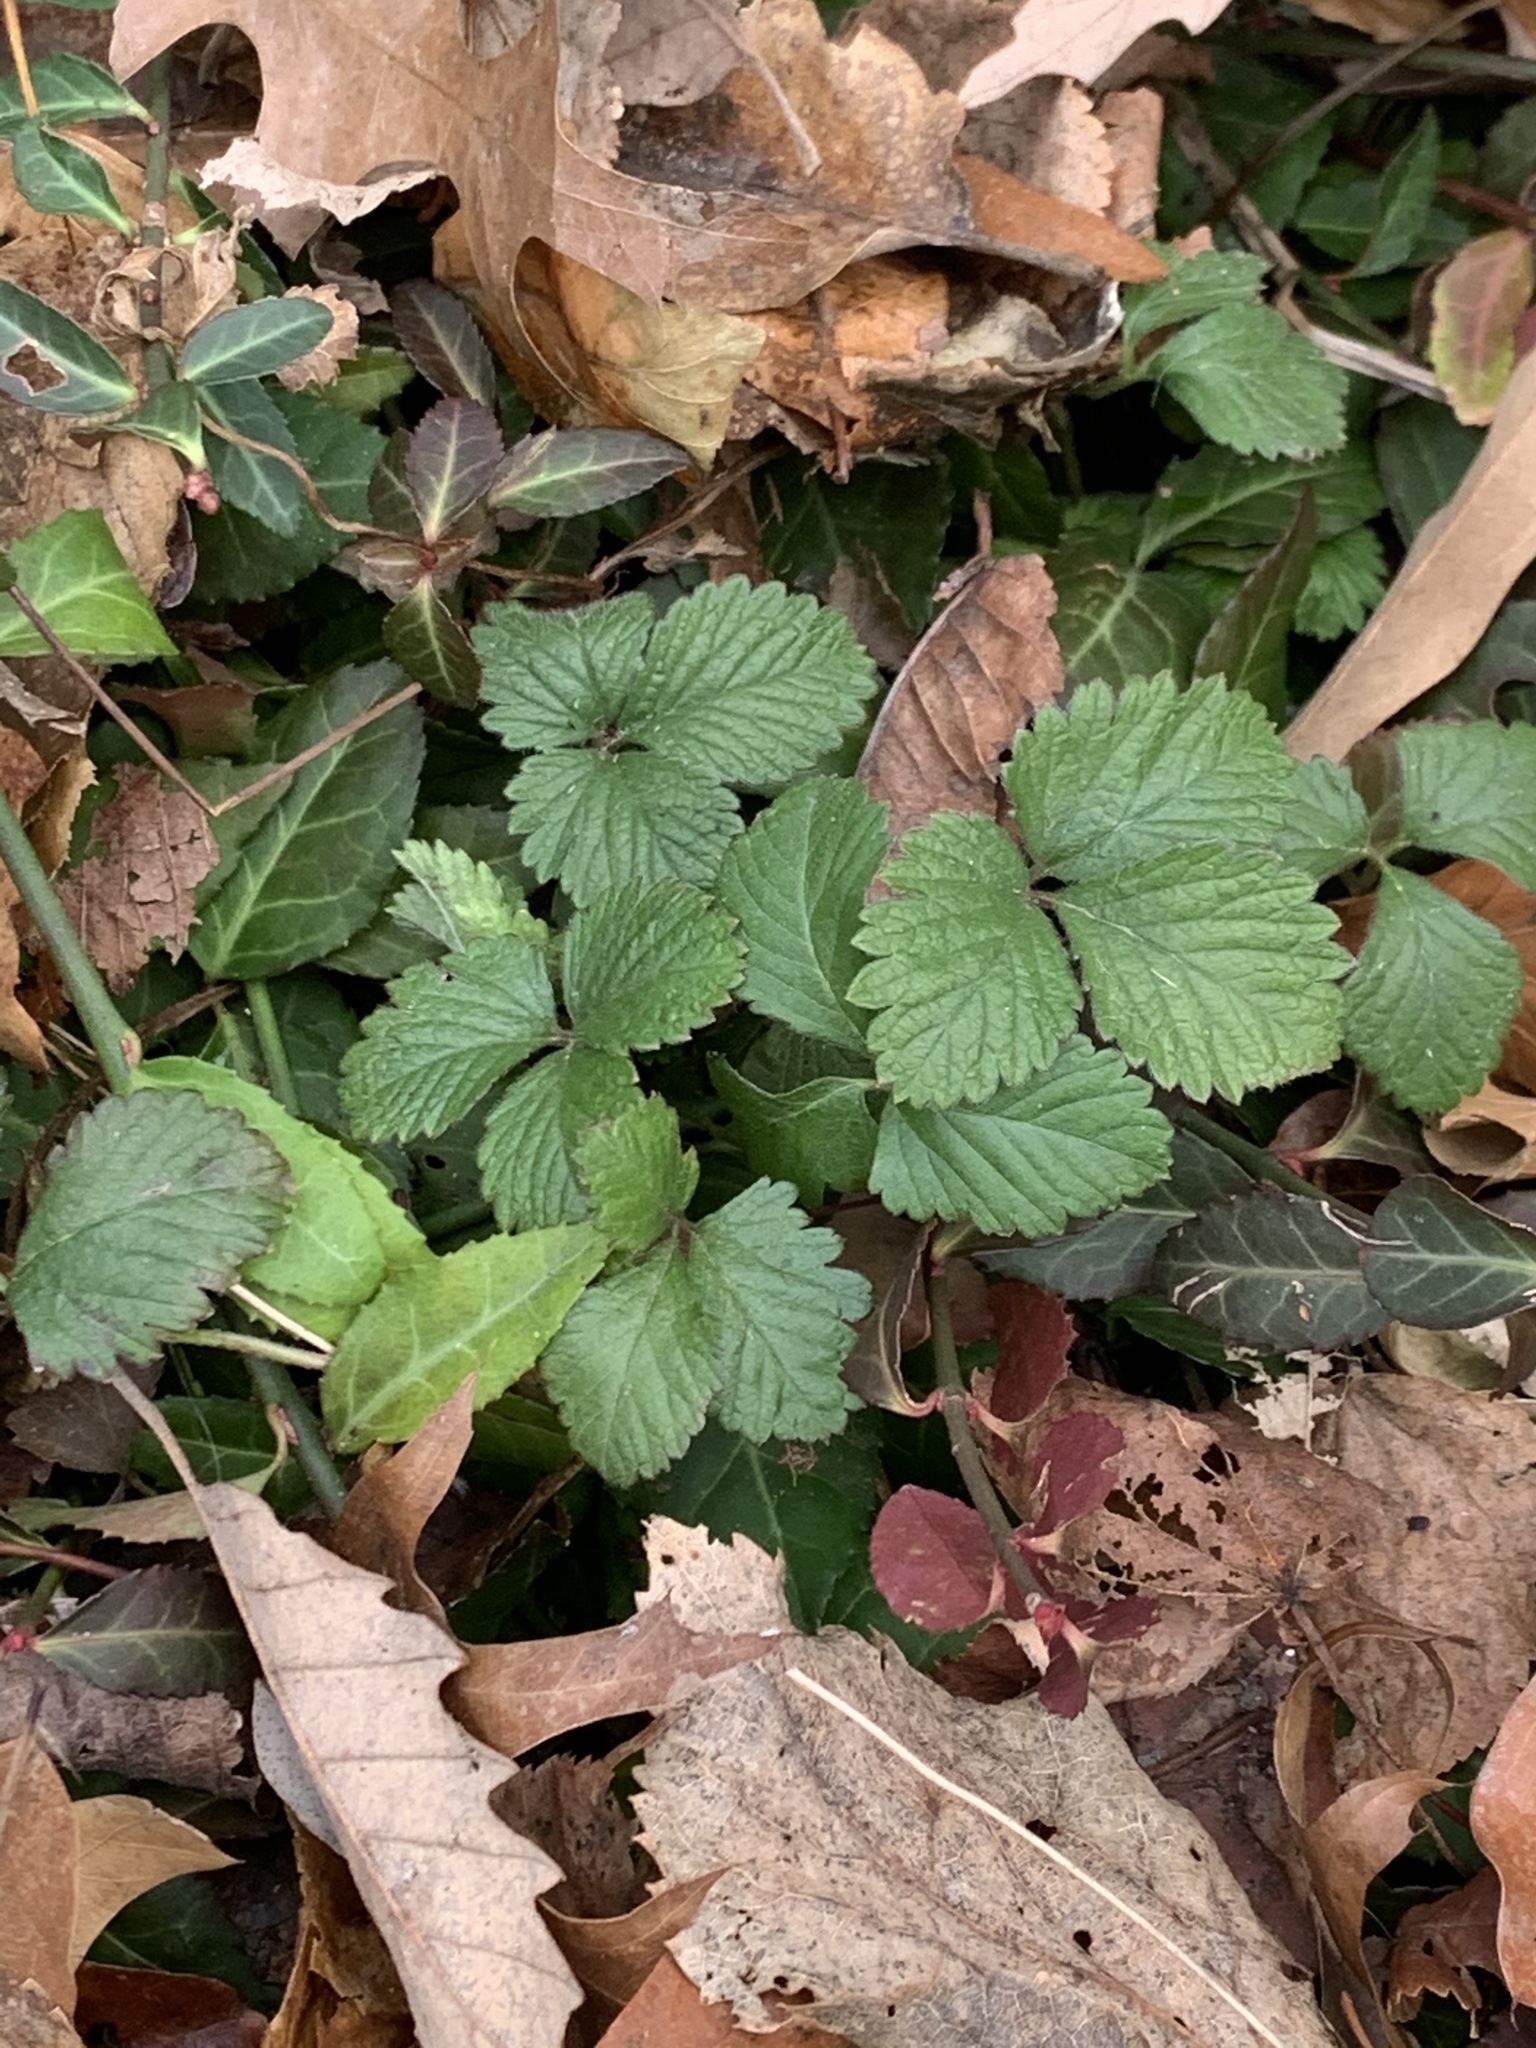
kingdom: Plantae
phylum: Tracheophyta
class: Magnoliopsida
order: Rosales
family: Rosaceae
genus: Potentilla
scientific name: Potentilla indica
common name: Yellow-flowered strawberry
